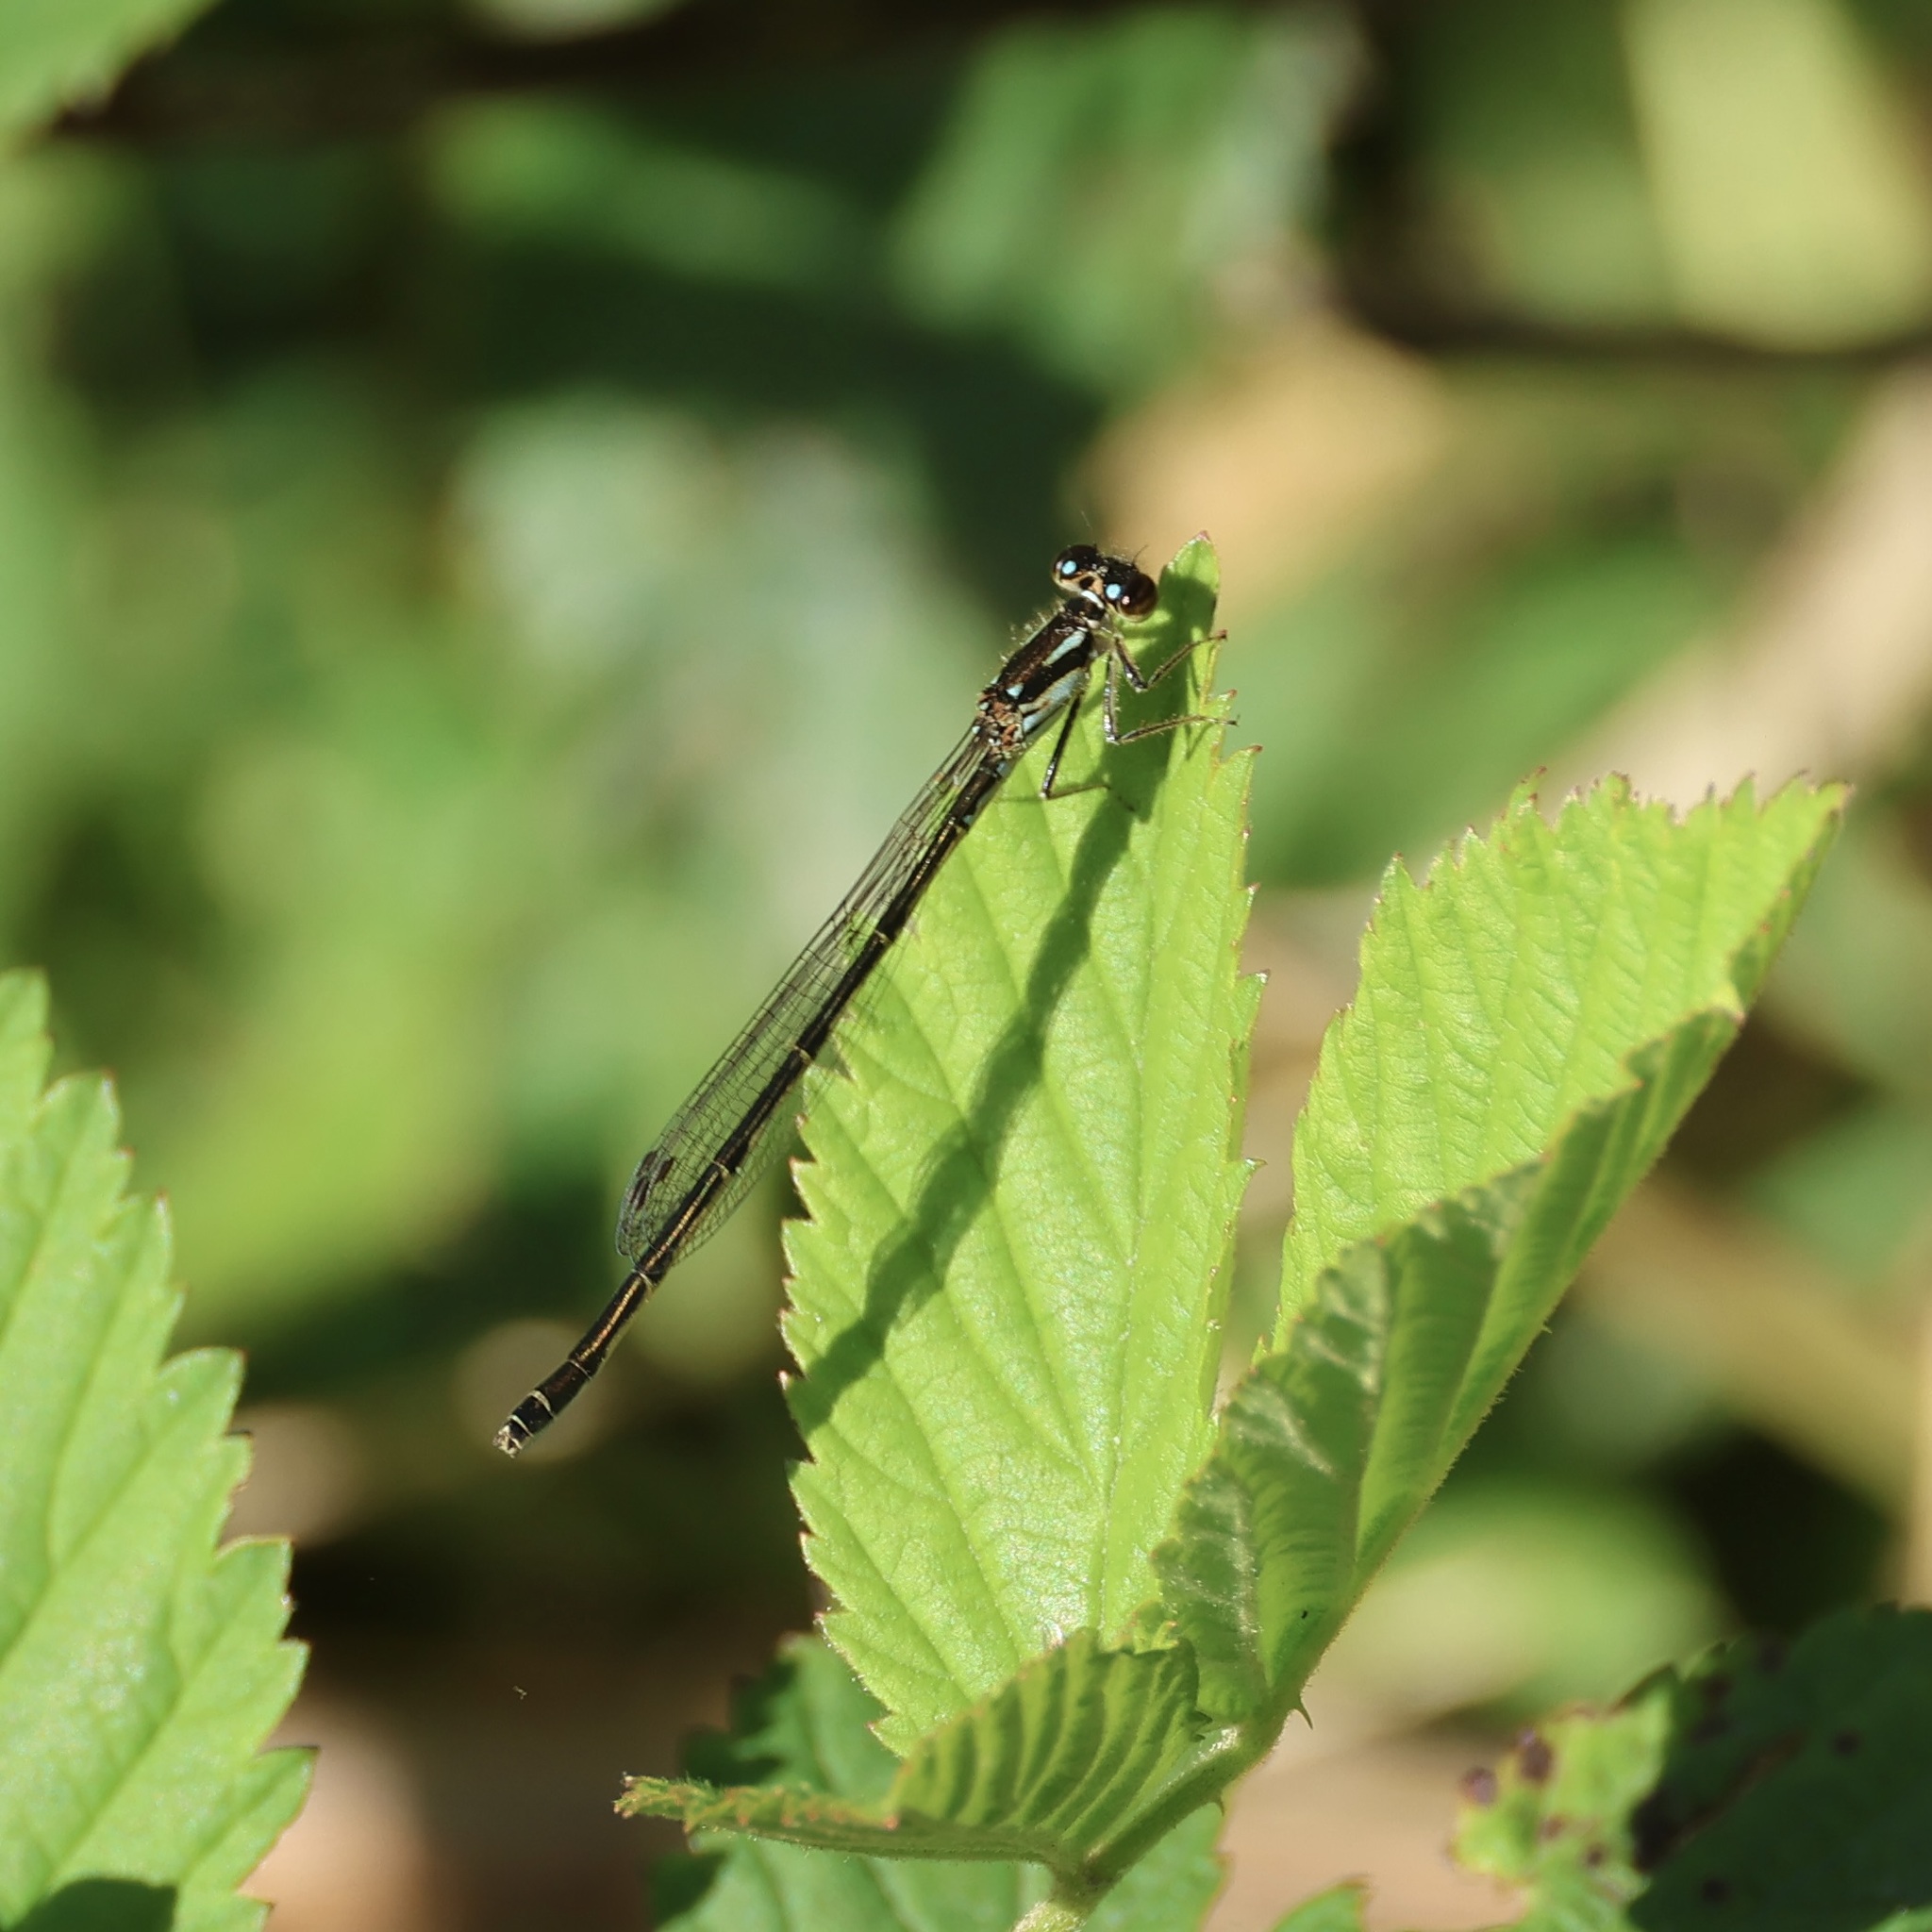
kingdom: Animalia
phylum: Arthropoda
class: Insecta
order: Odonata
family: Coenagrionidae
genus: Ischnura
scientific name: Ischnura posita
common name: Fragile forktail
